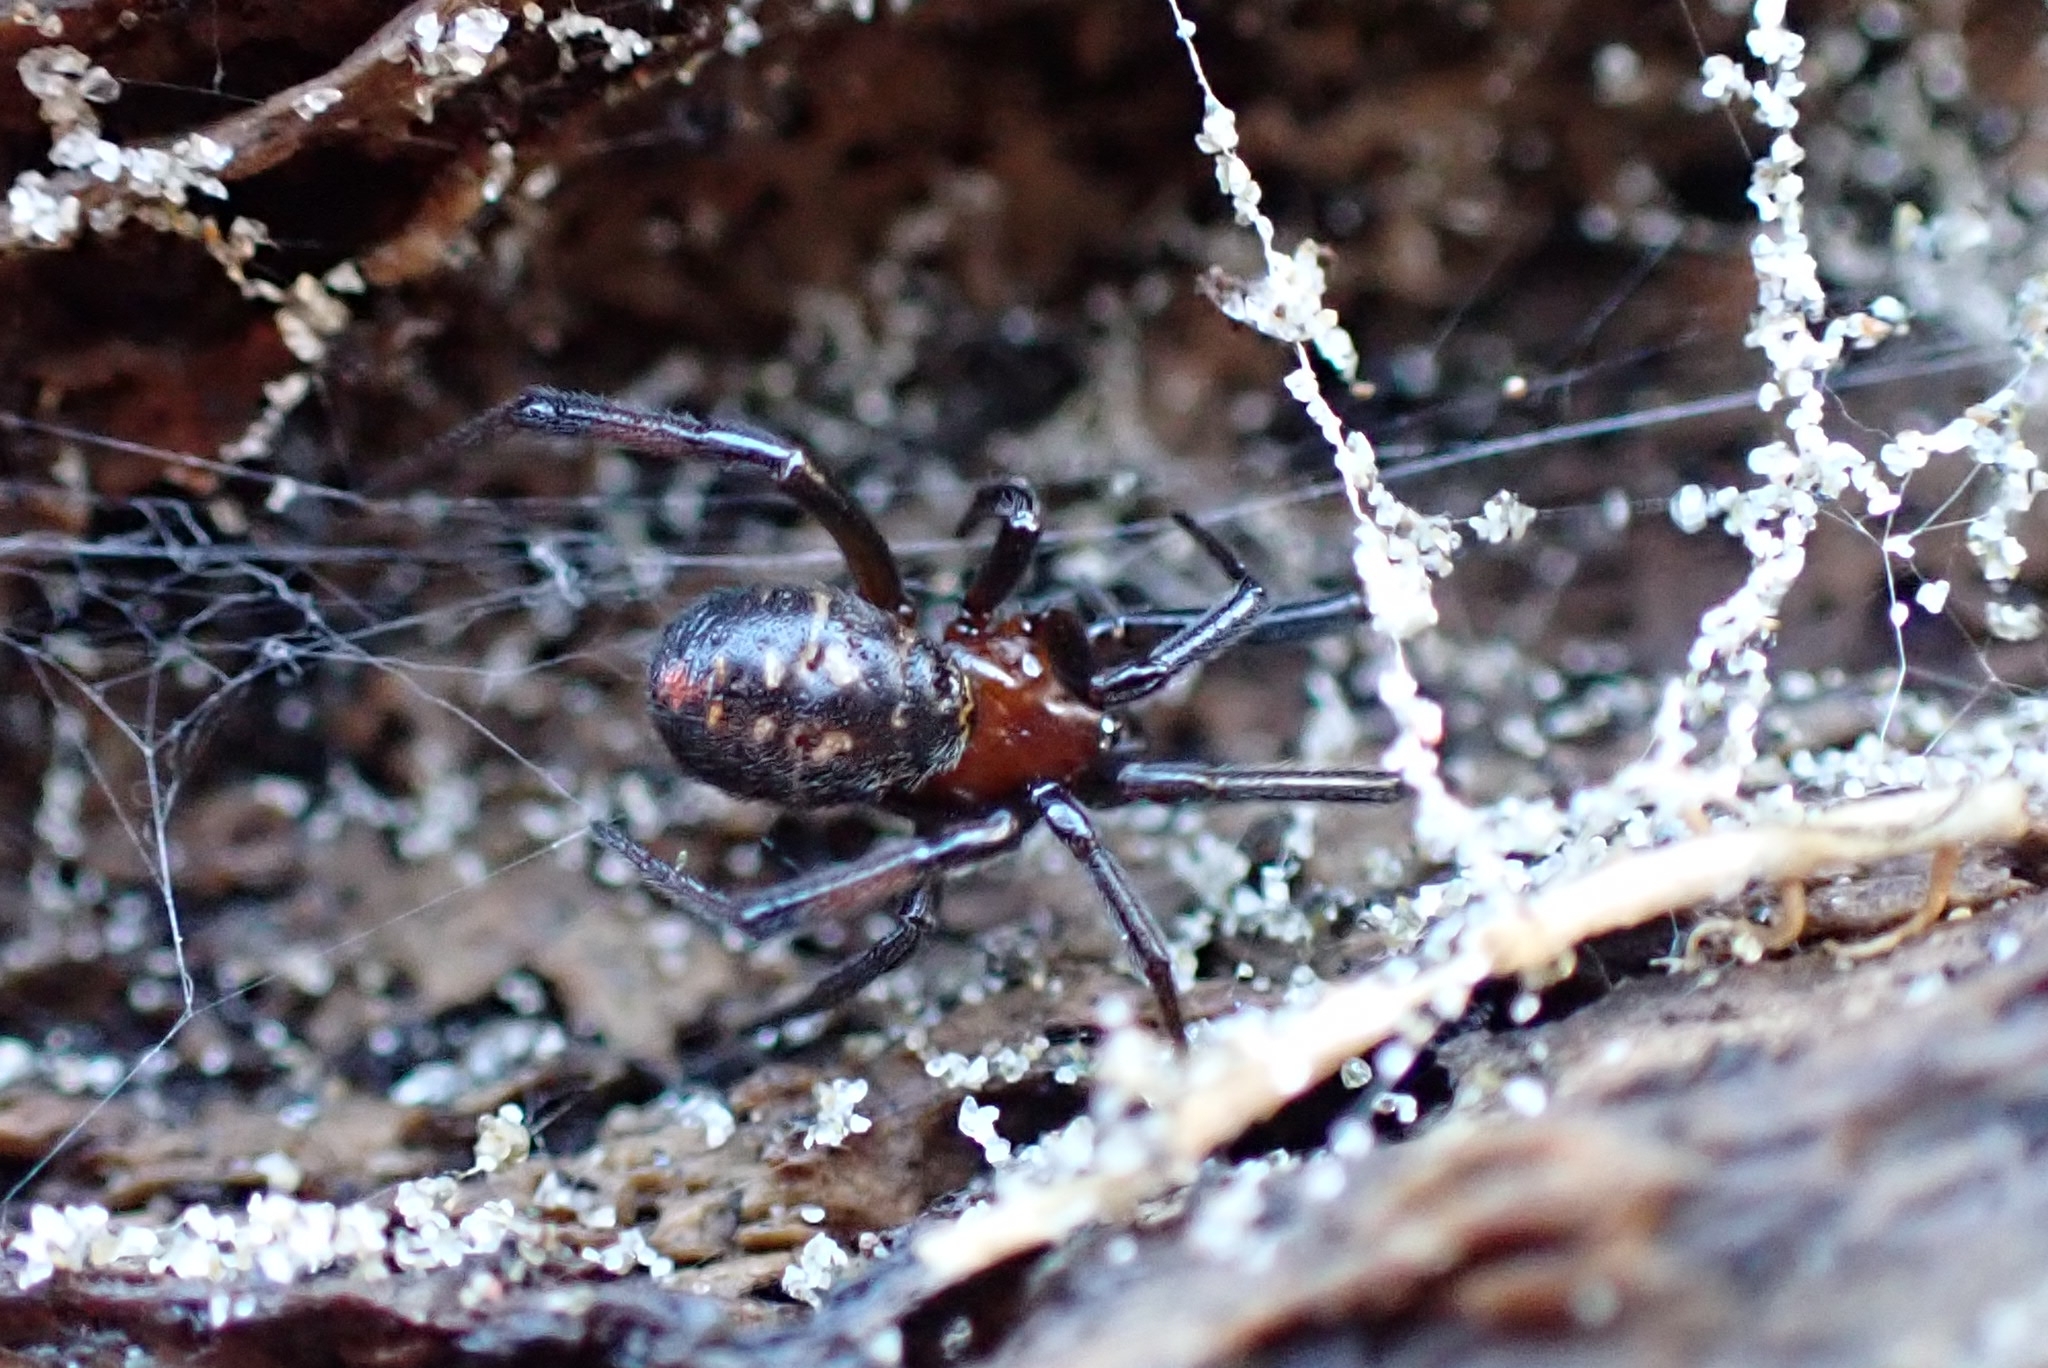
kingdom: Animalia
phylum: Arthropoda
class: Arachnida
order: Araneae
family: Theridiidae
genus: Steatoda
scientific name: Steatoda capensis
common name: Cobweb weaver
